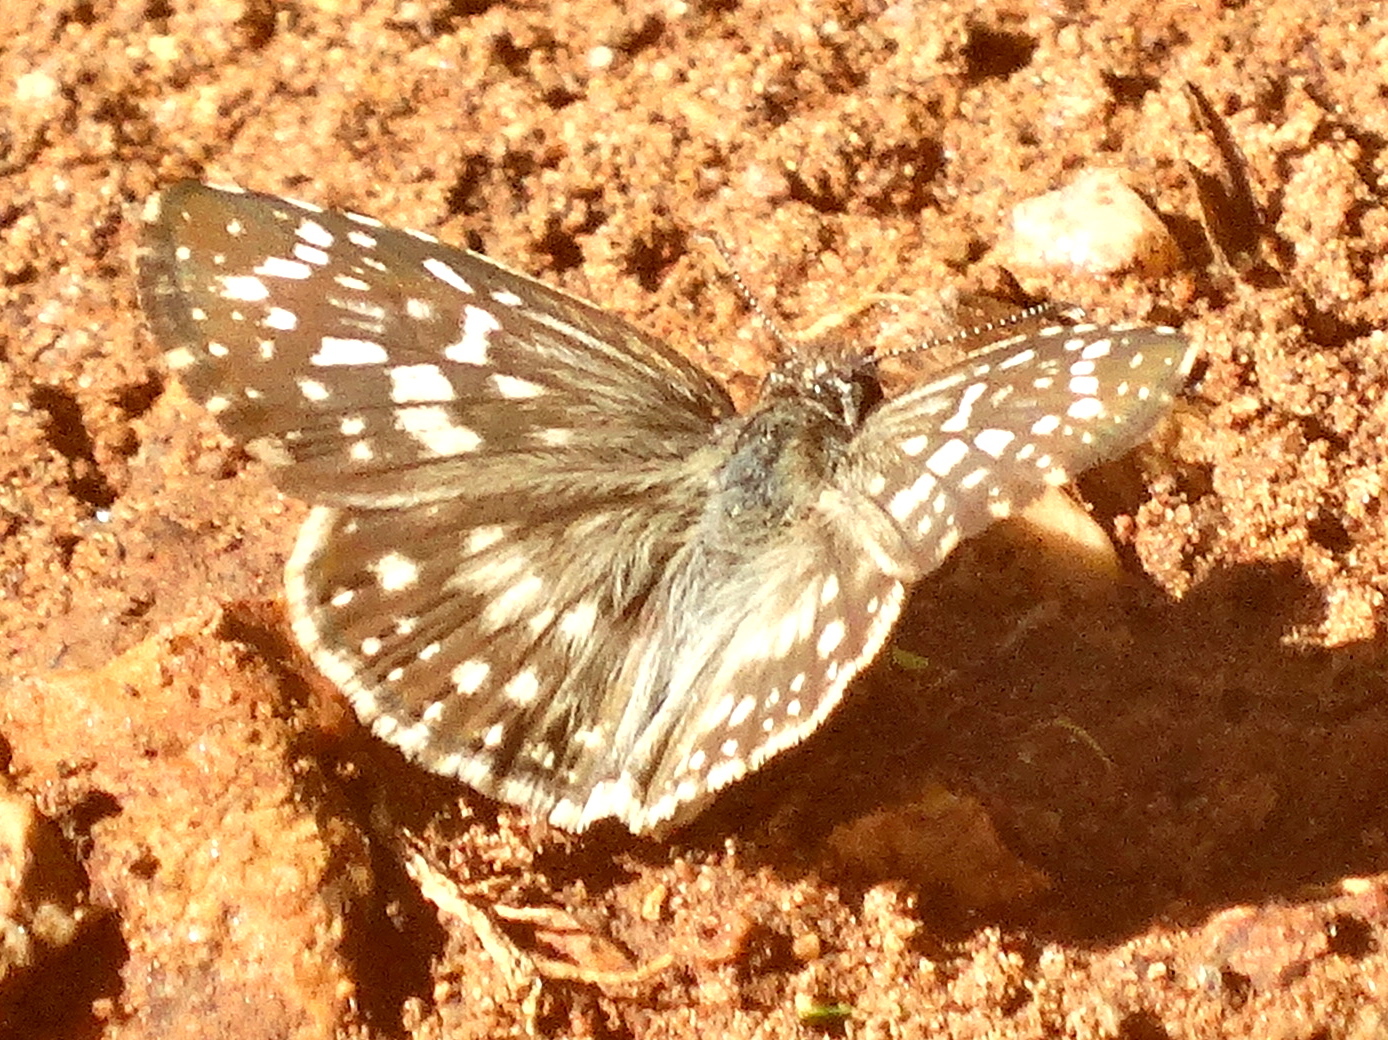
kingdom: Animalia
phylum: Arthropoda
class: Insecta
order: Lepidoptera
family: Hesperiidae
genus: Burnsius
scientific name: Burnsius
